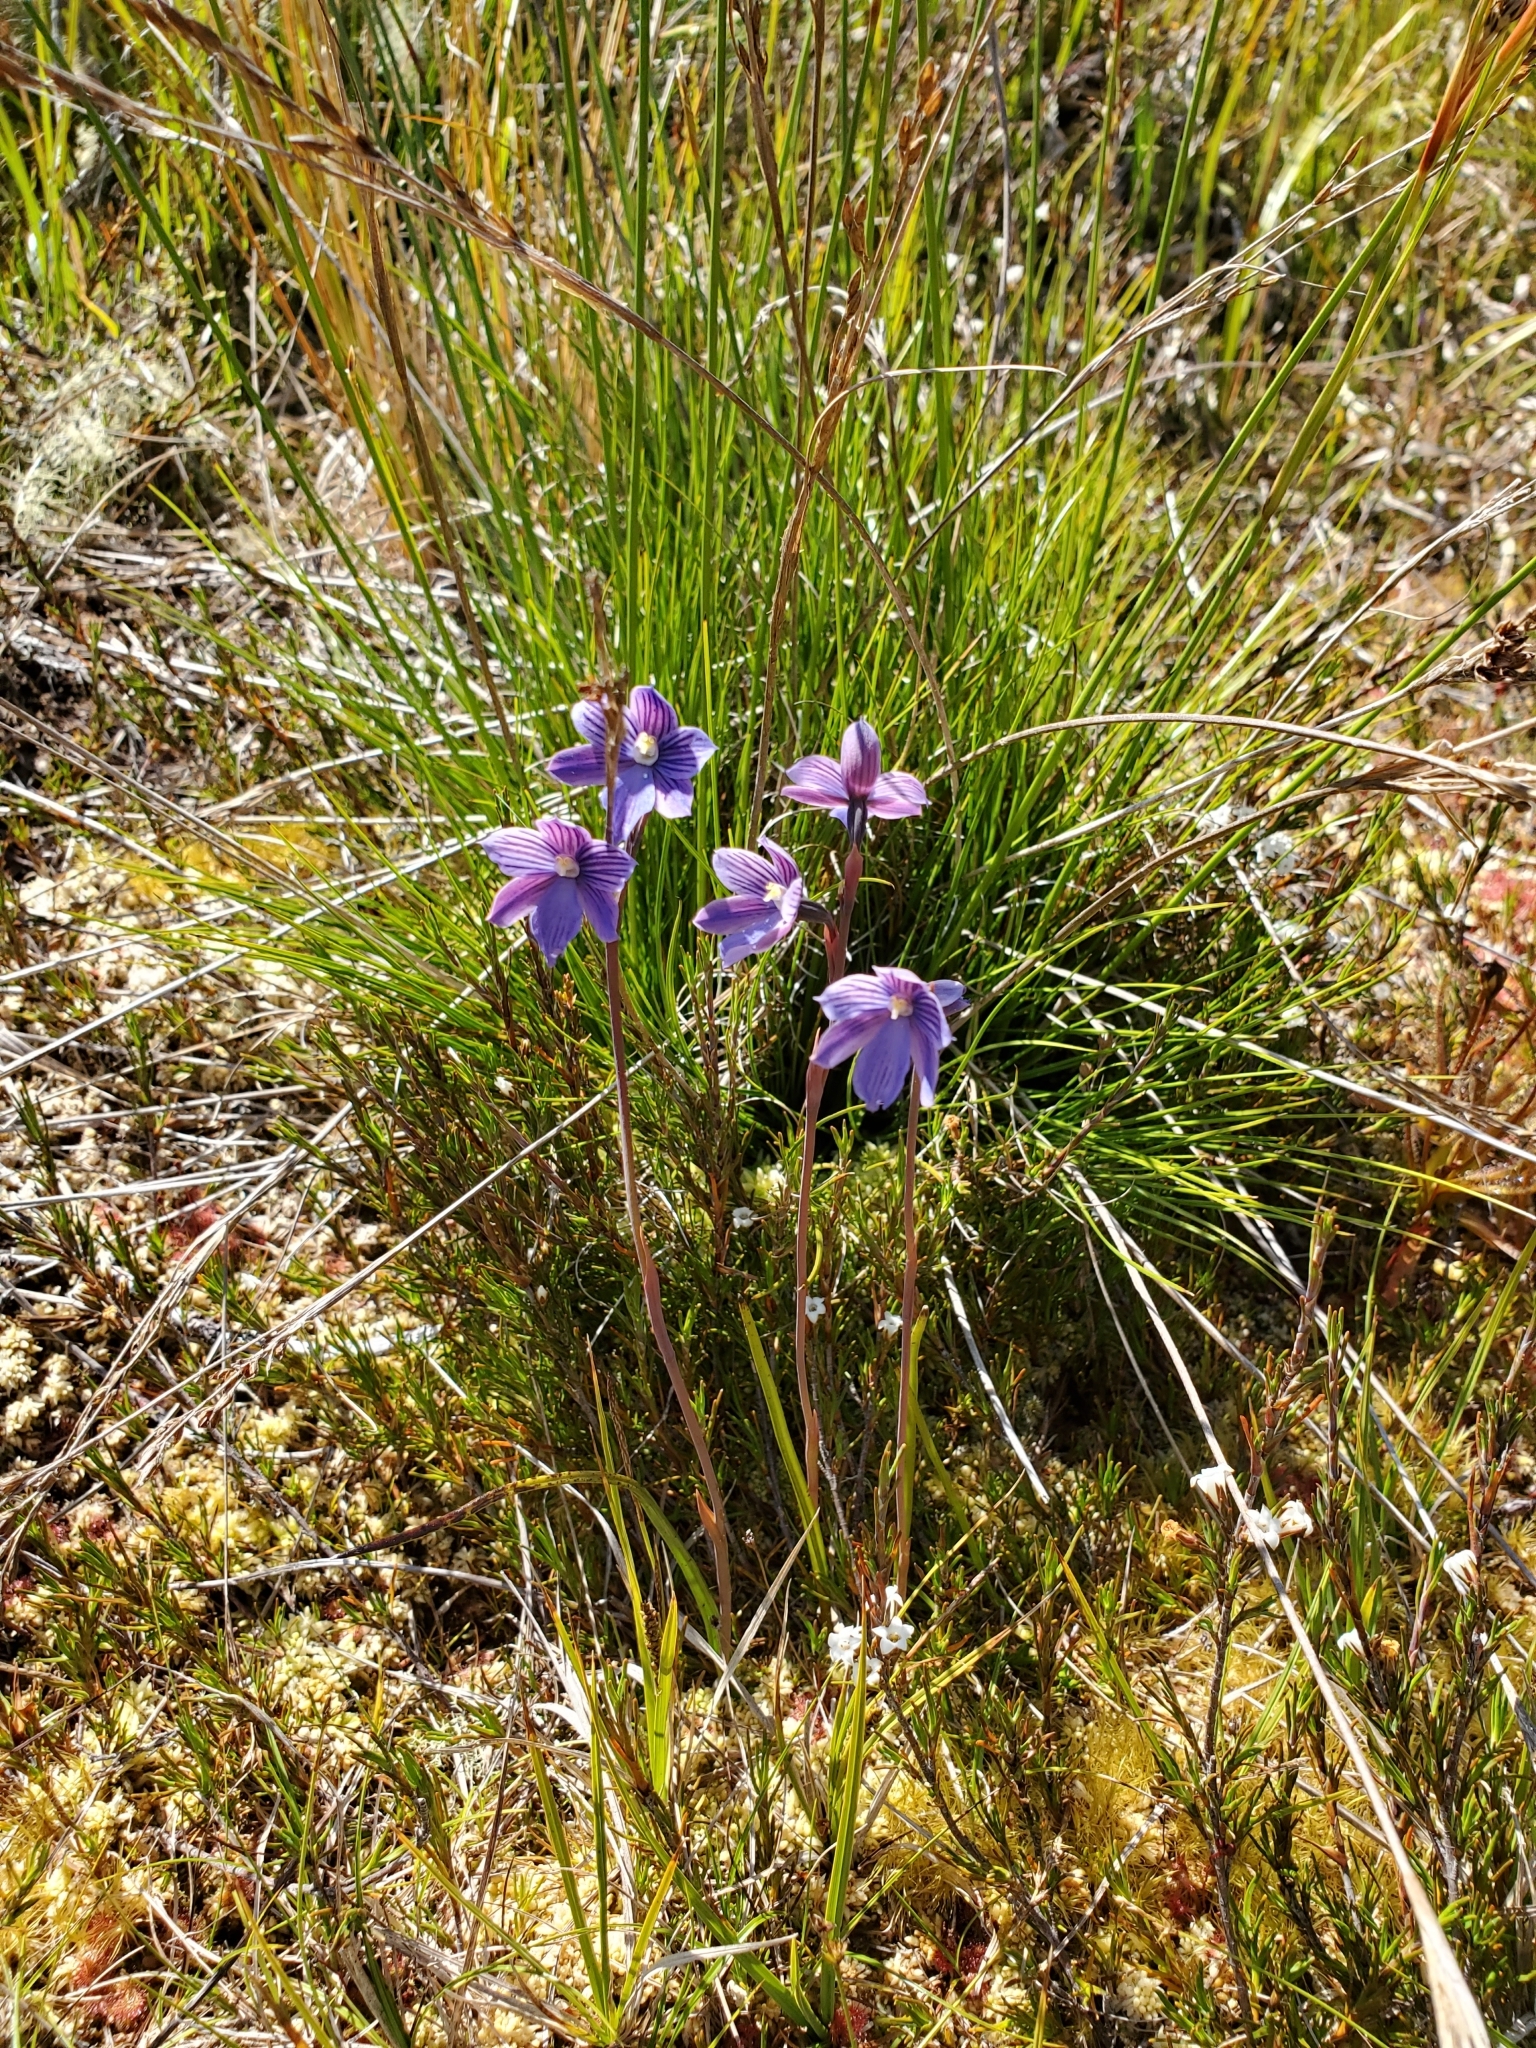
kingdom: Plantae
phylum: Tracheophyta
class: Liliopsida
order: Asparagales
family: Orchidaceae
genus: Thelymitra
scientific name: Thelymitra cyanea
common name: Blue sun-orchid
